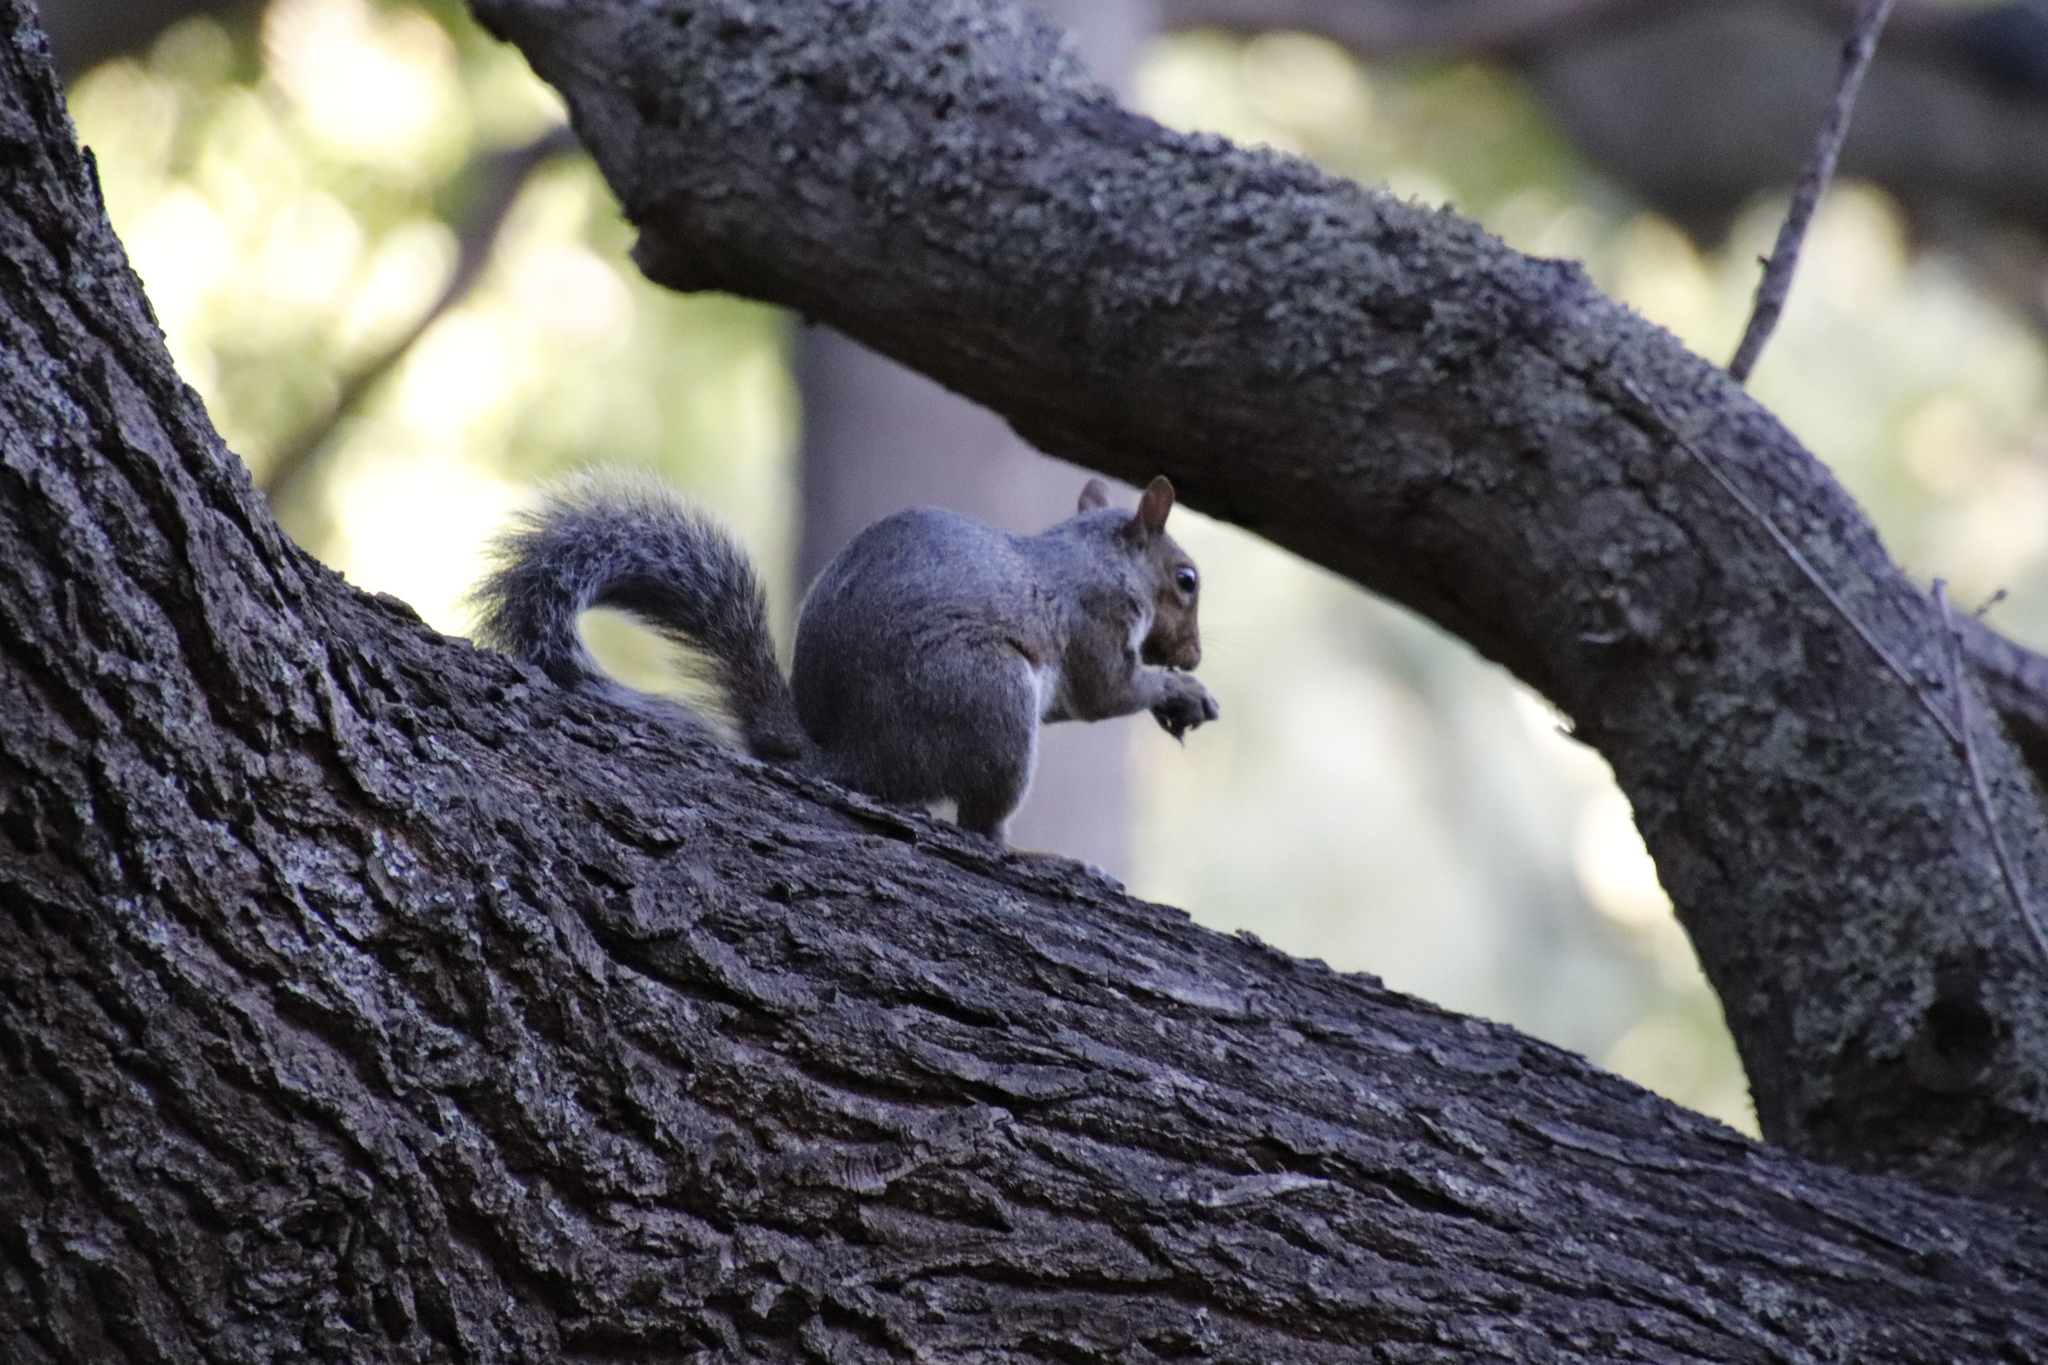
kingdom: Animalia
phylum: Chordata
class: Mammalia
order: Rodentia
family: Sciuridae
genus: Sciurus
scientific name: Sciurus carolinensis
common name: Eastern gray squirrel
